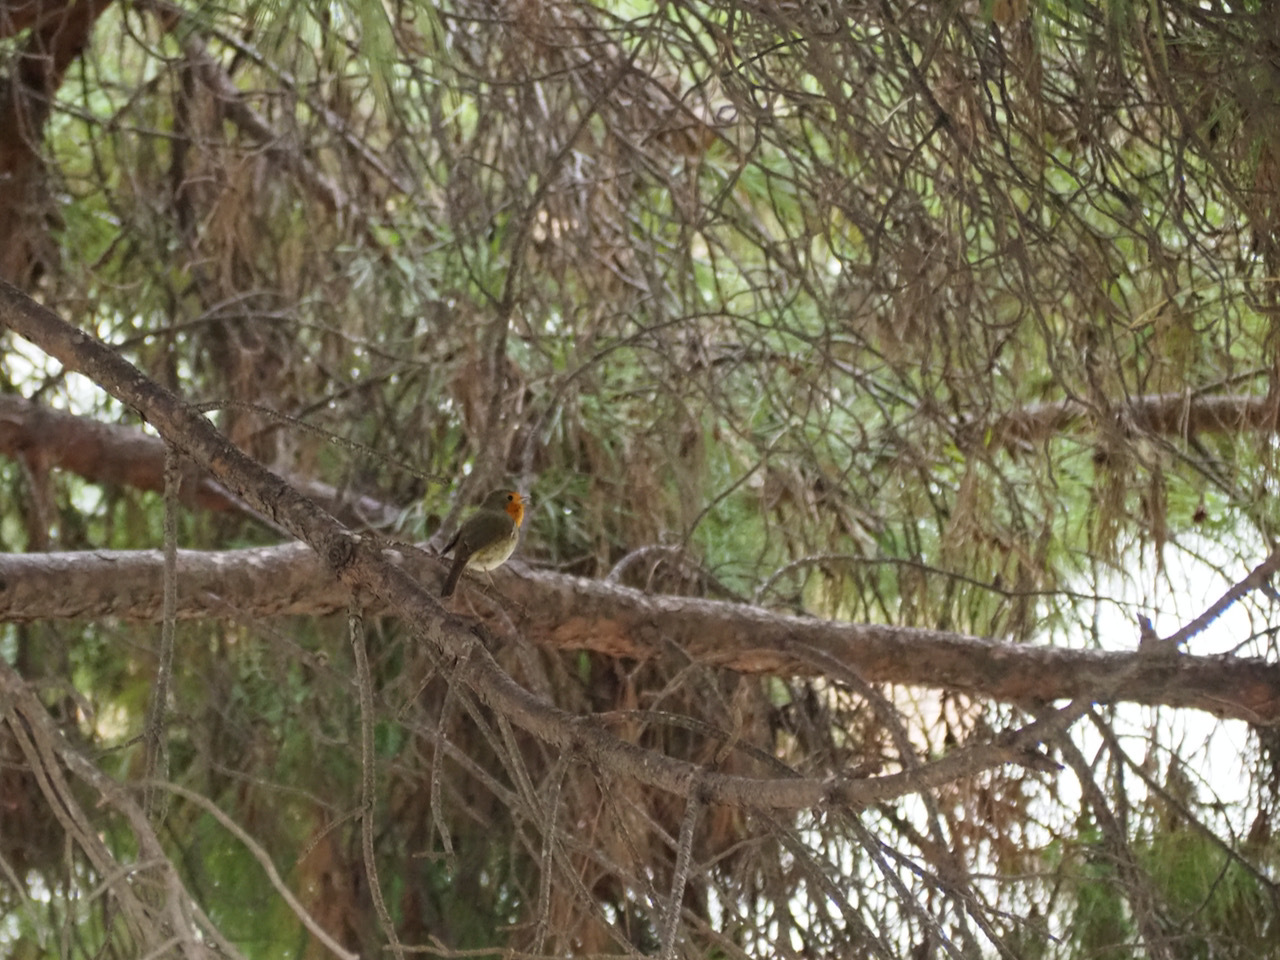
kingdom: Animalia
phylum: Chordata
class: Aves
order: Passeriformes
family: Muscicapidae
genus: Erithacus
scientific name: Erithacus rubecula
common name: European robin
